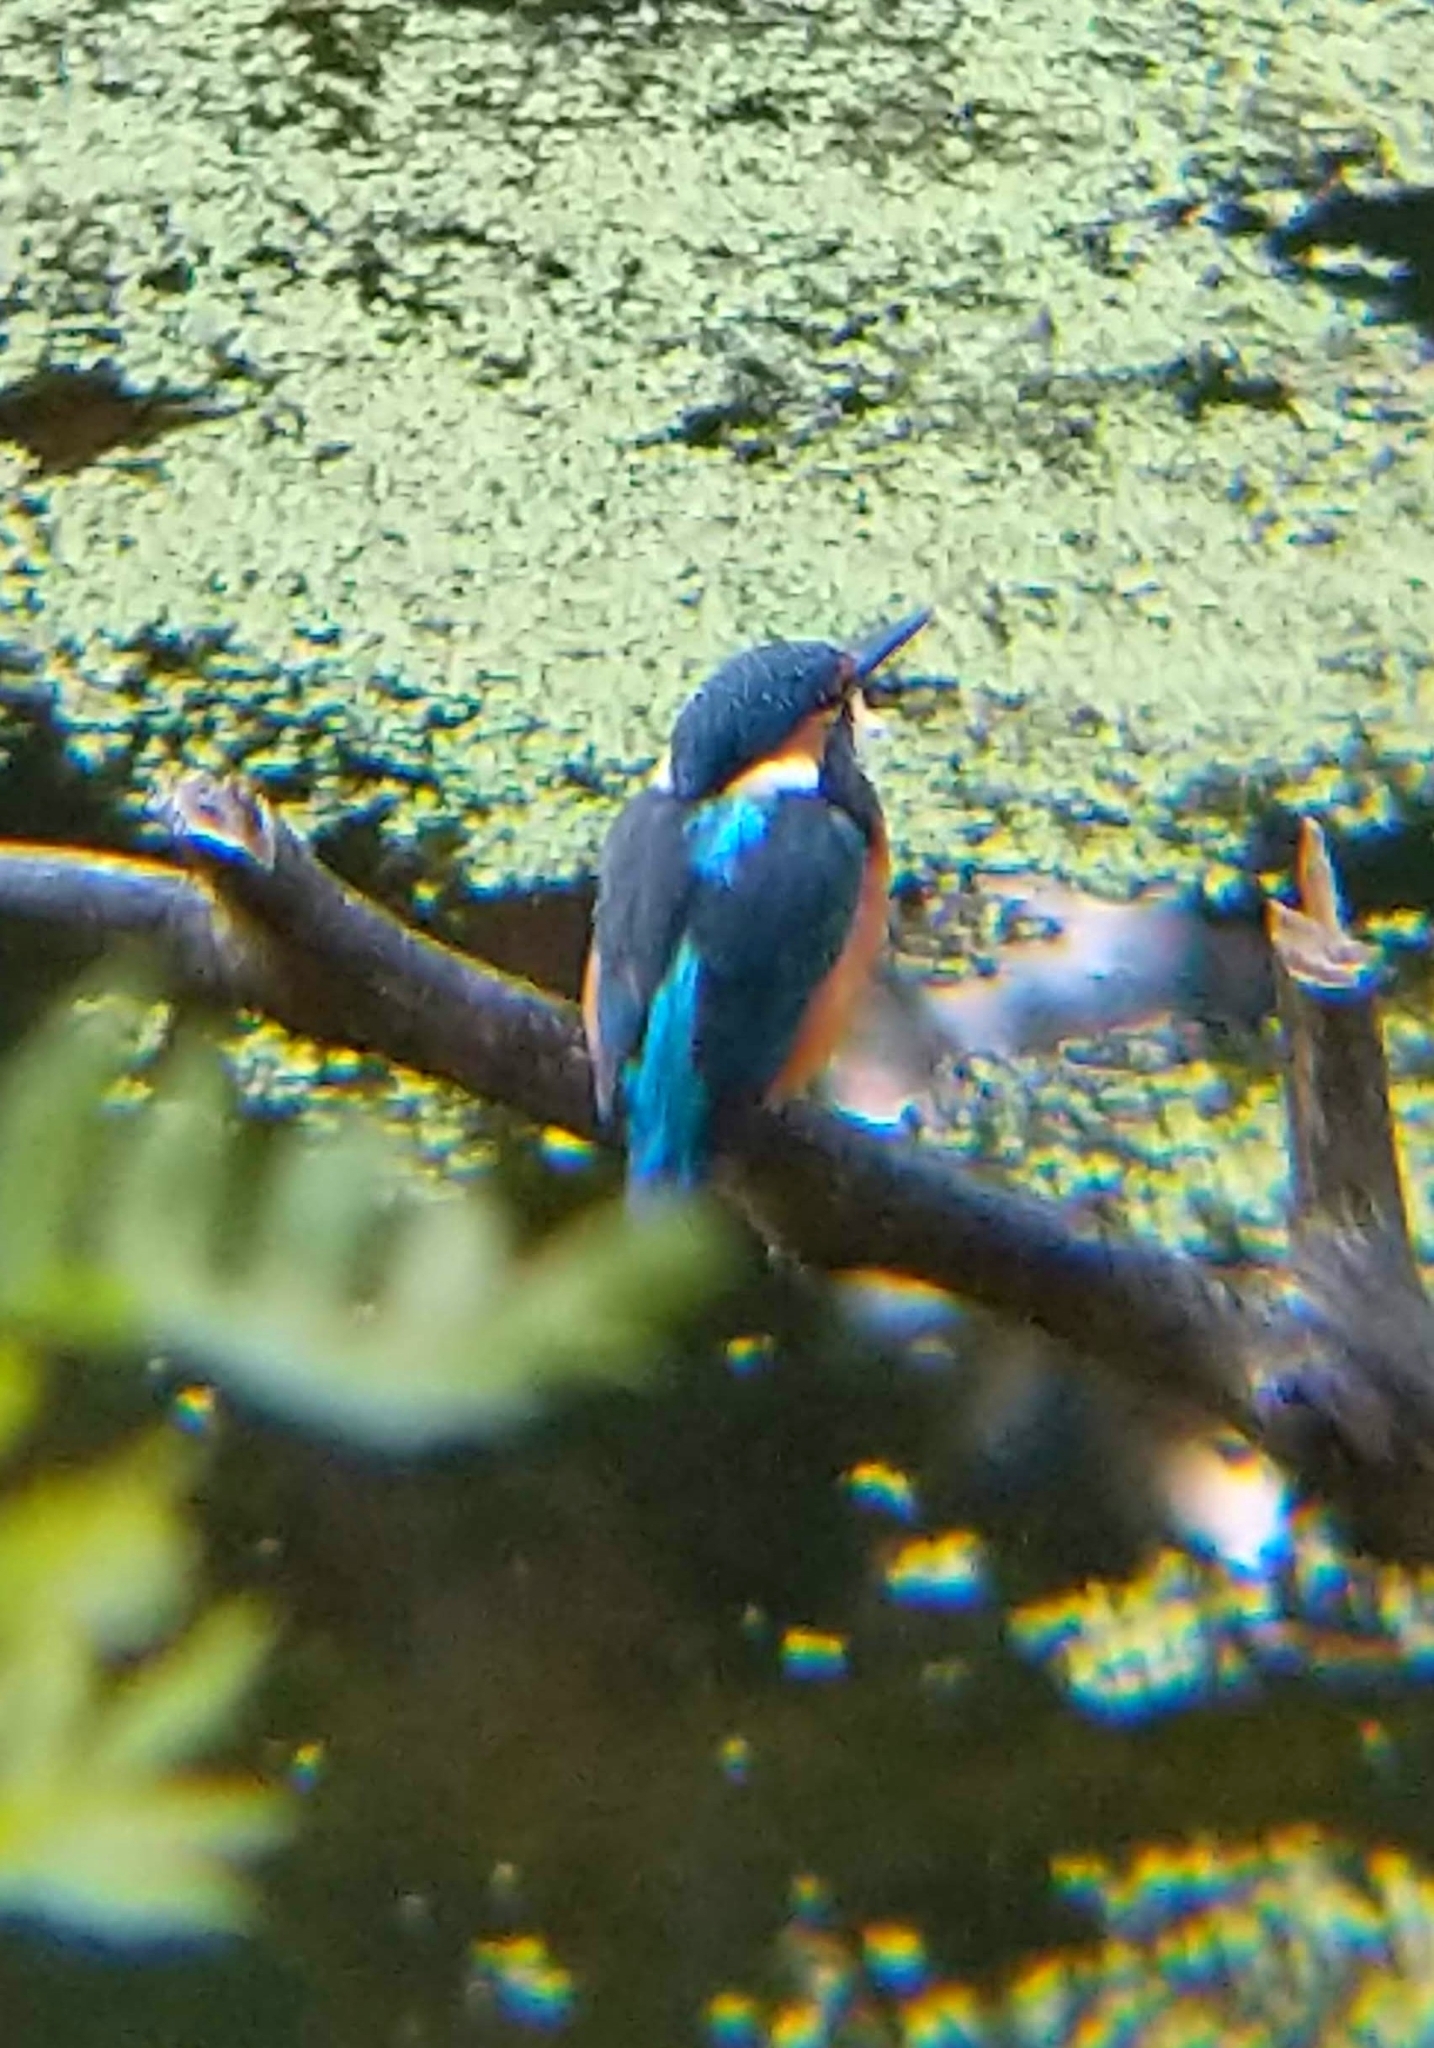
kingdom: Animalia
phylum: Chordata
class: Aves
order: Coraciiformes
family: Alcedinidae
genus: Alcedo
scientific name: Alcedo atthis
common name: Common kingfisher
